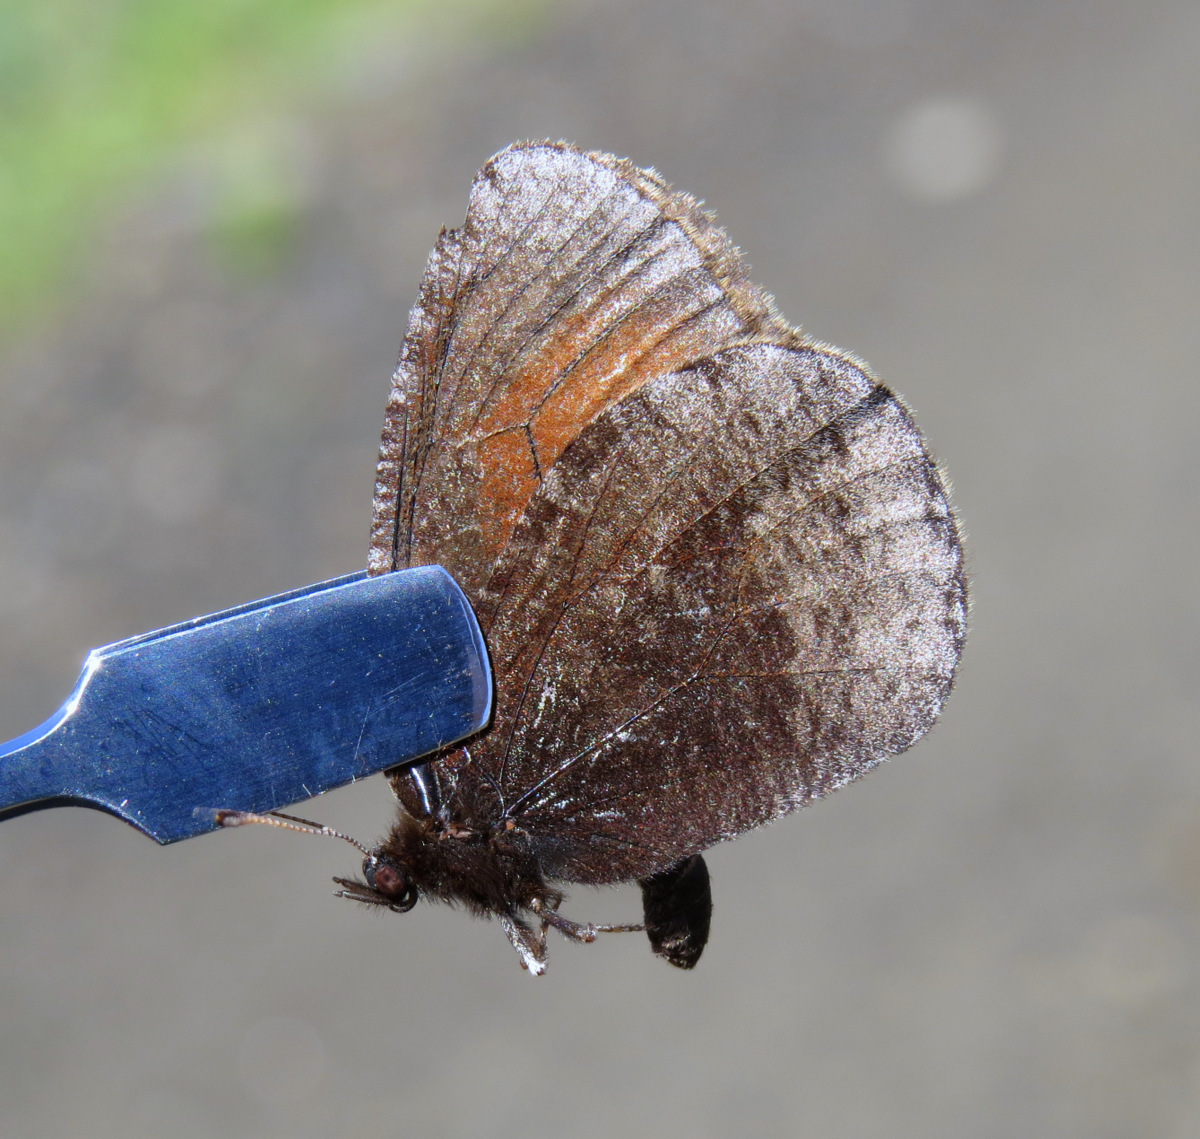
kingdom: Animalia
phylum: Arthropoda
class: Insecta
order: Lepidoptera
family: Nymphalidae
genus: Erebia
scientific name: Erebia discoidalis
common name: Red-disked alpine
